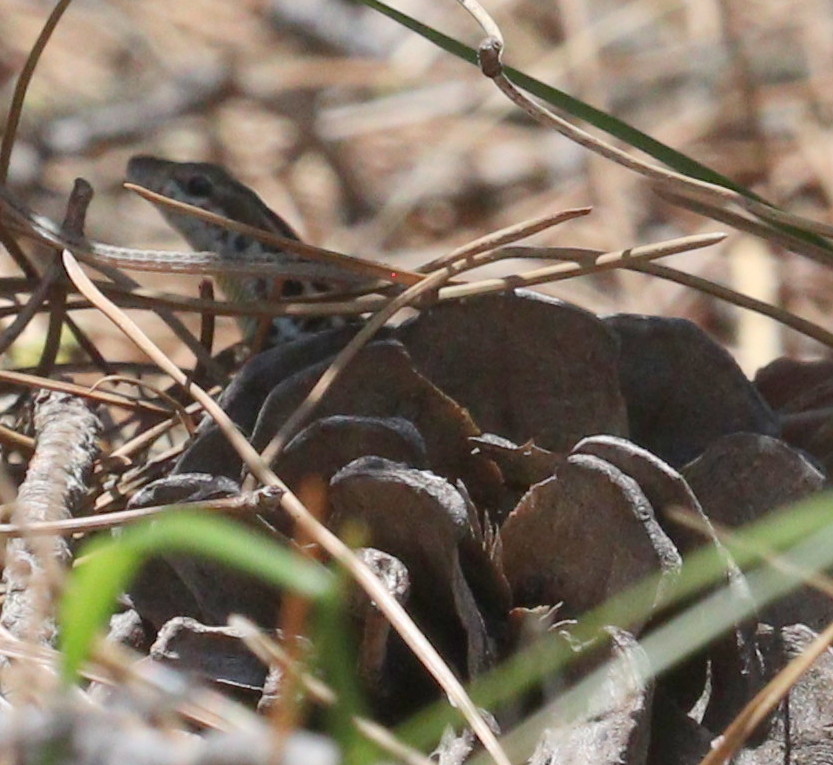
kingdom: Animalia
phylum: Chordata
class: Squamata
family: Lacertidae
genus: Ophisops
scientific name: Ophisops elegans
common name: Snake-eyed lizard
